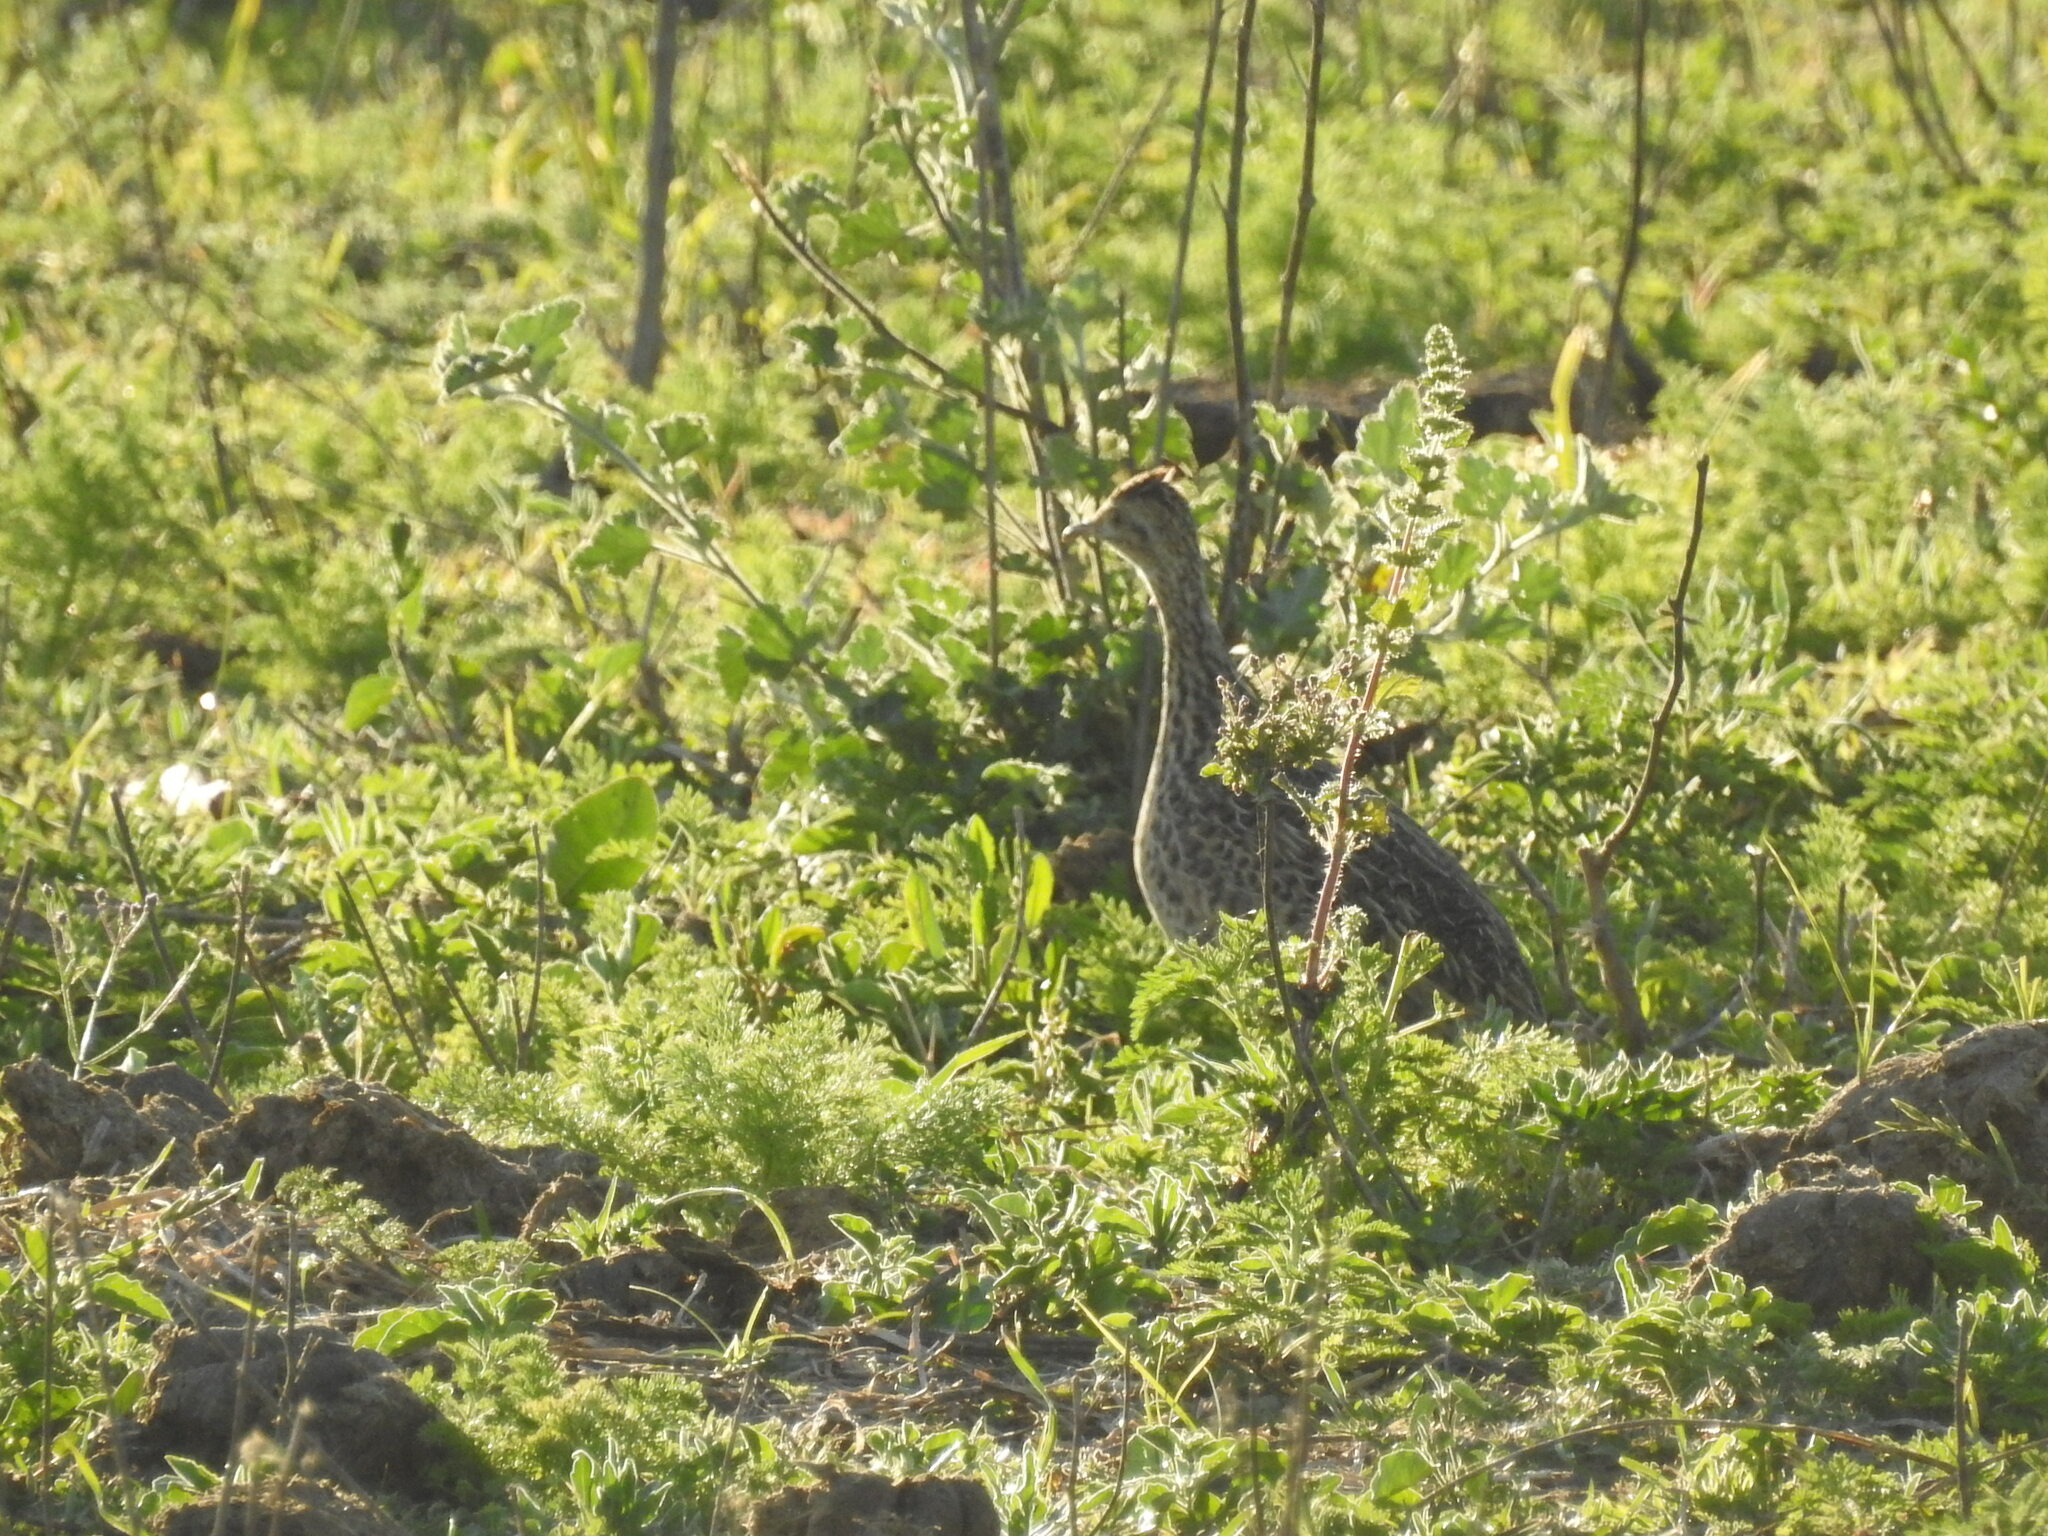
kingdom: Animalia
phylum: Chordata
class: Aves
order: Tinamiformes
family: Tinamidae
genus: Nothura
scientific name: Nothura maculosa
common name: Spotted nothura
